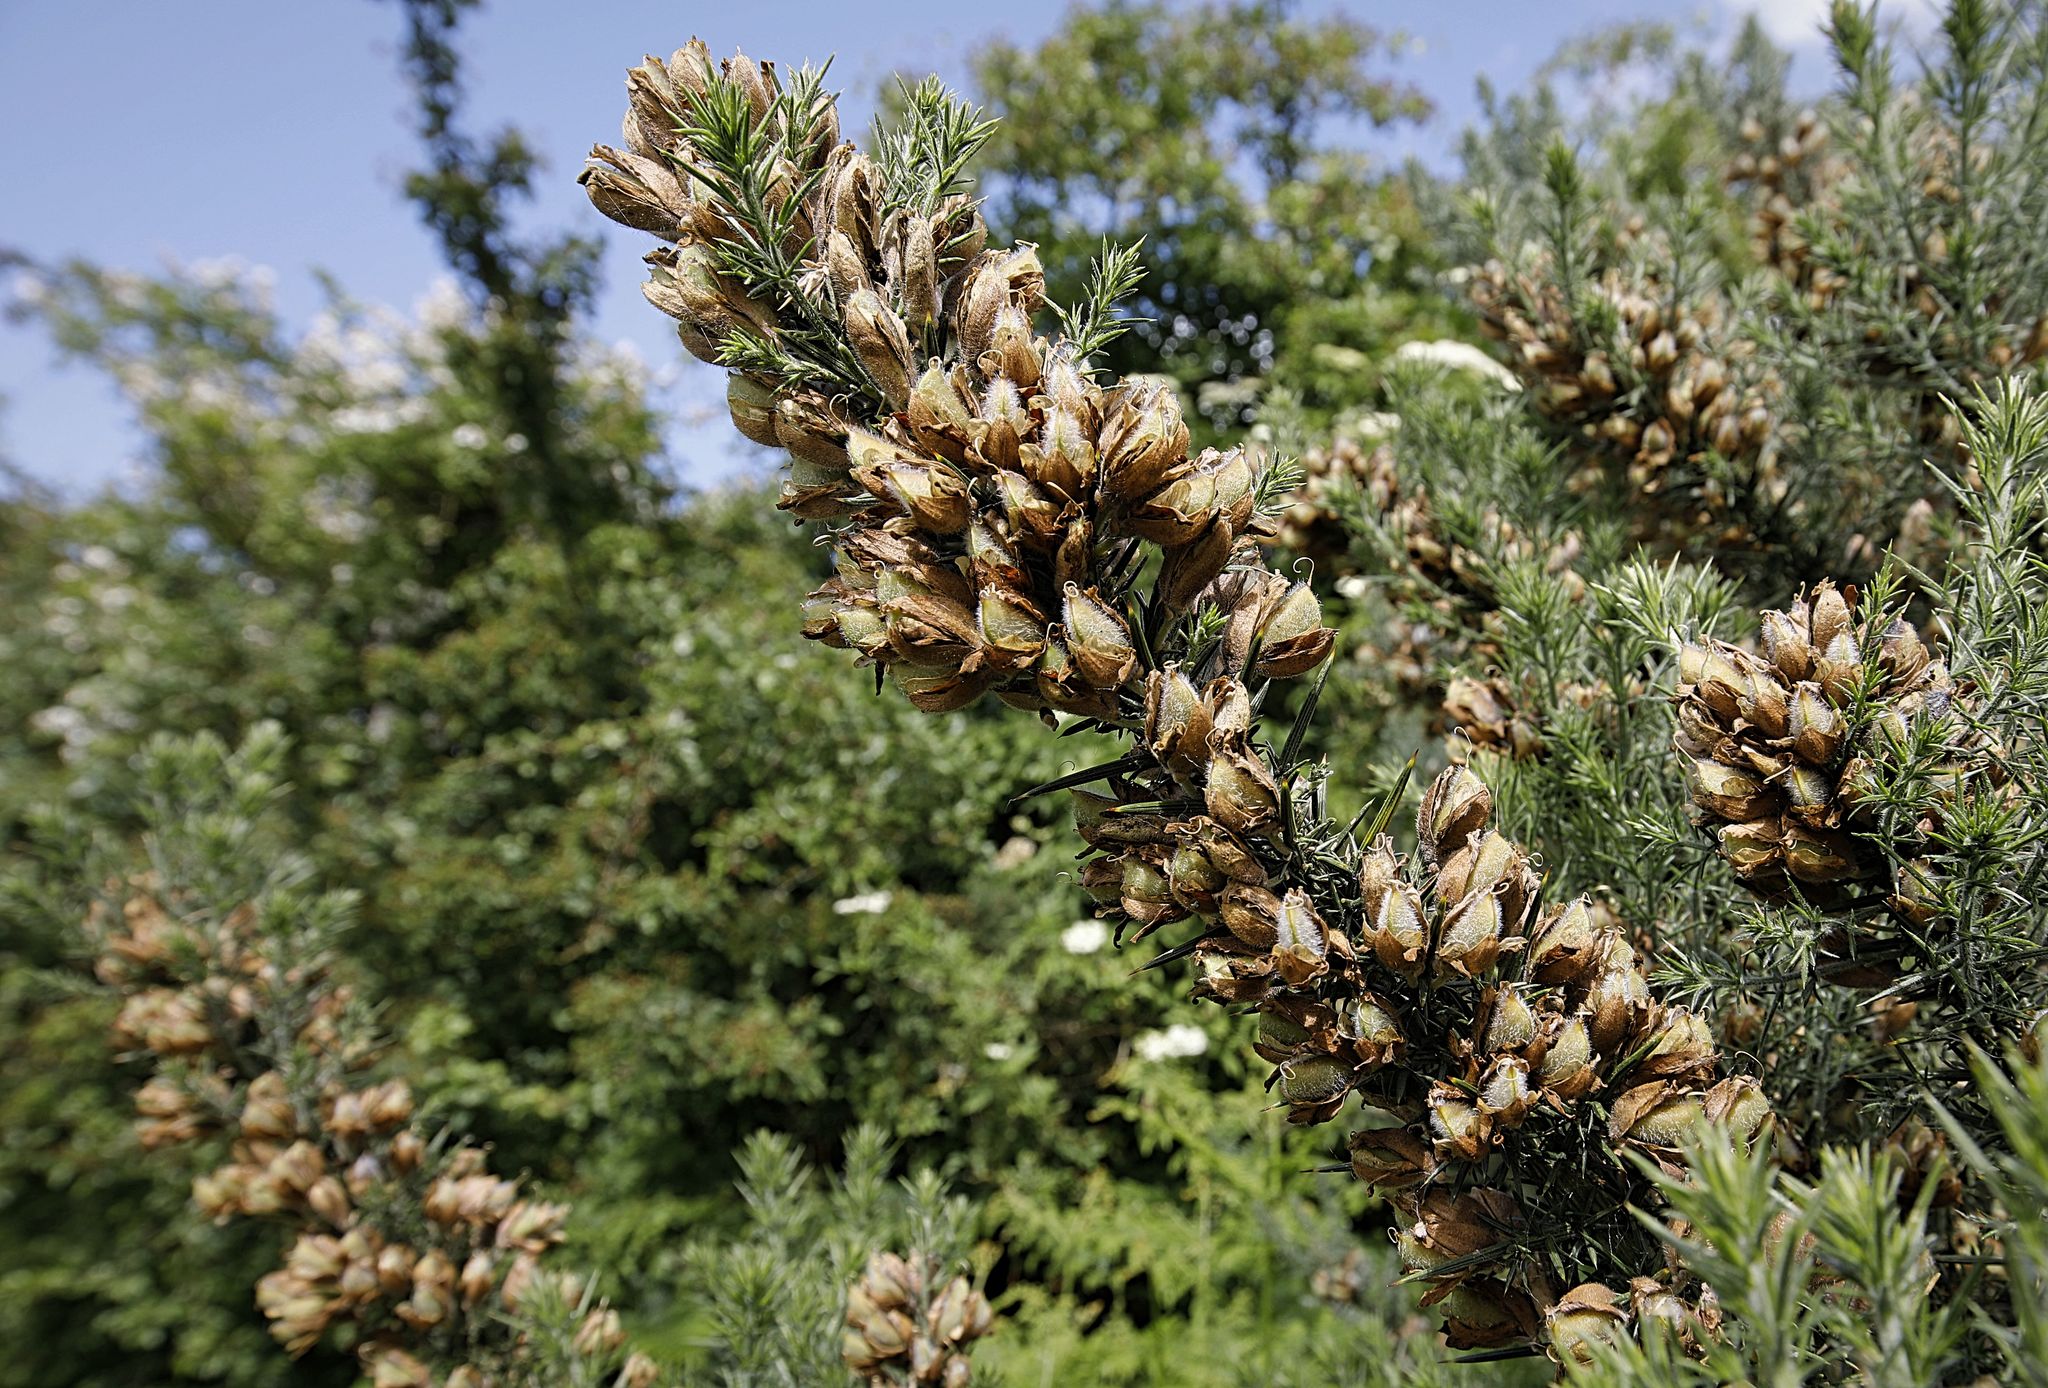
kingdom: Plantae
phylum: Tracheophyta
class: Magnoliopsida
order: Fabales
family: Fabaceae
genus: Ulex
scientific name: Ulex europaeus
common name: Common gorse
